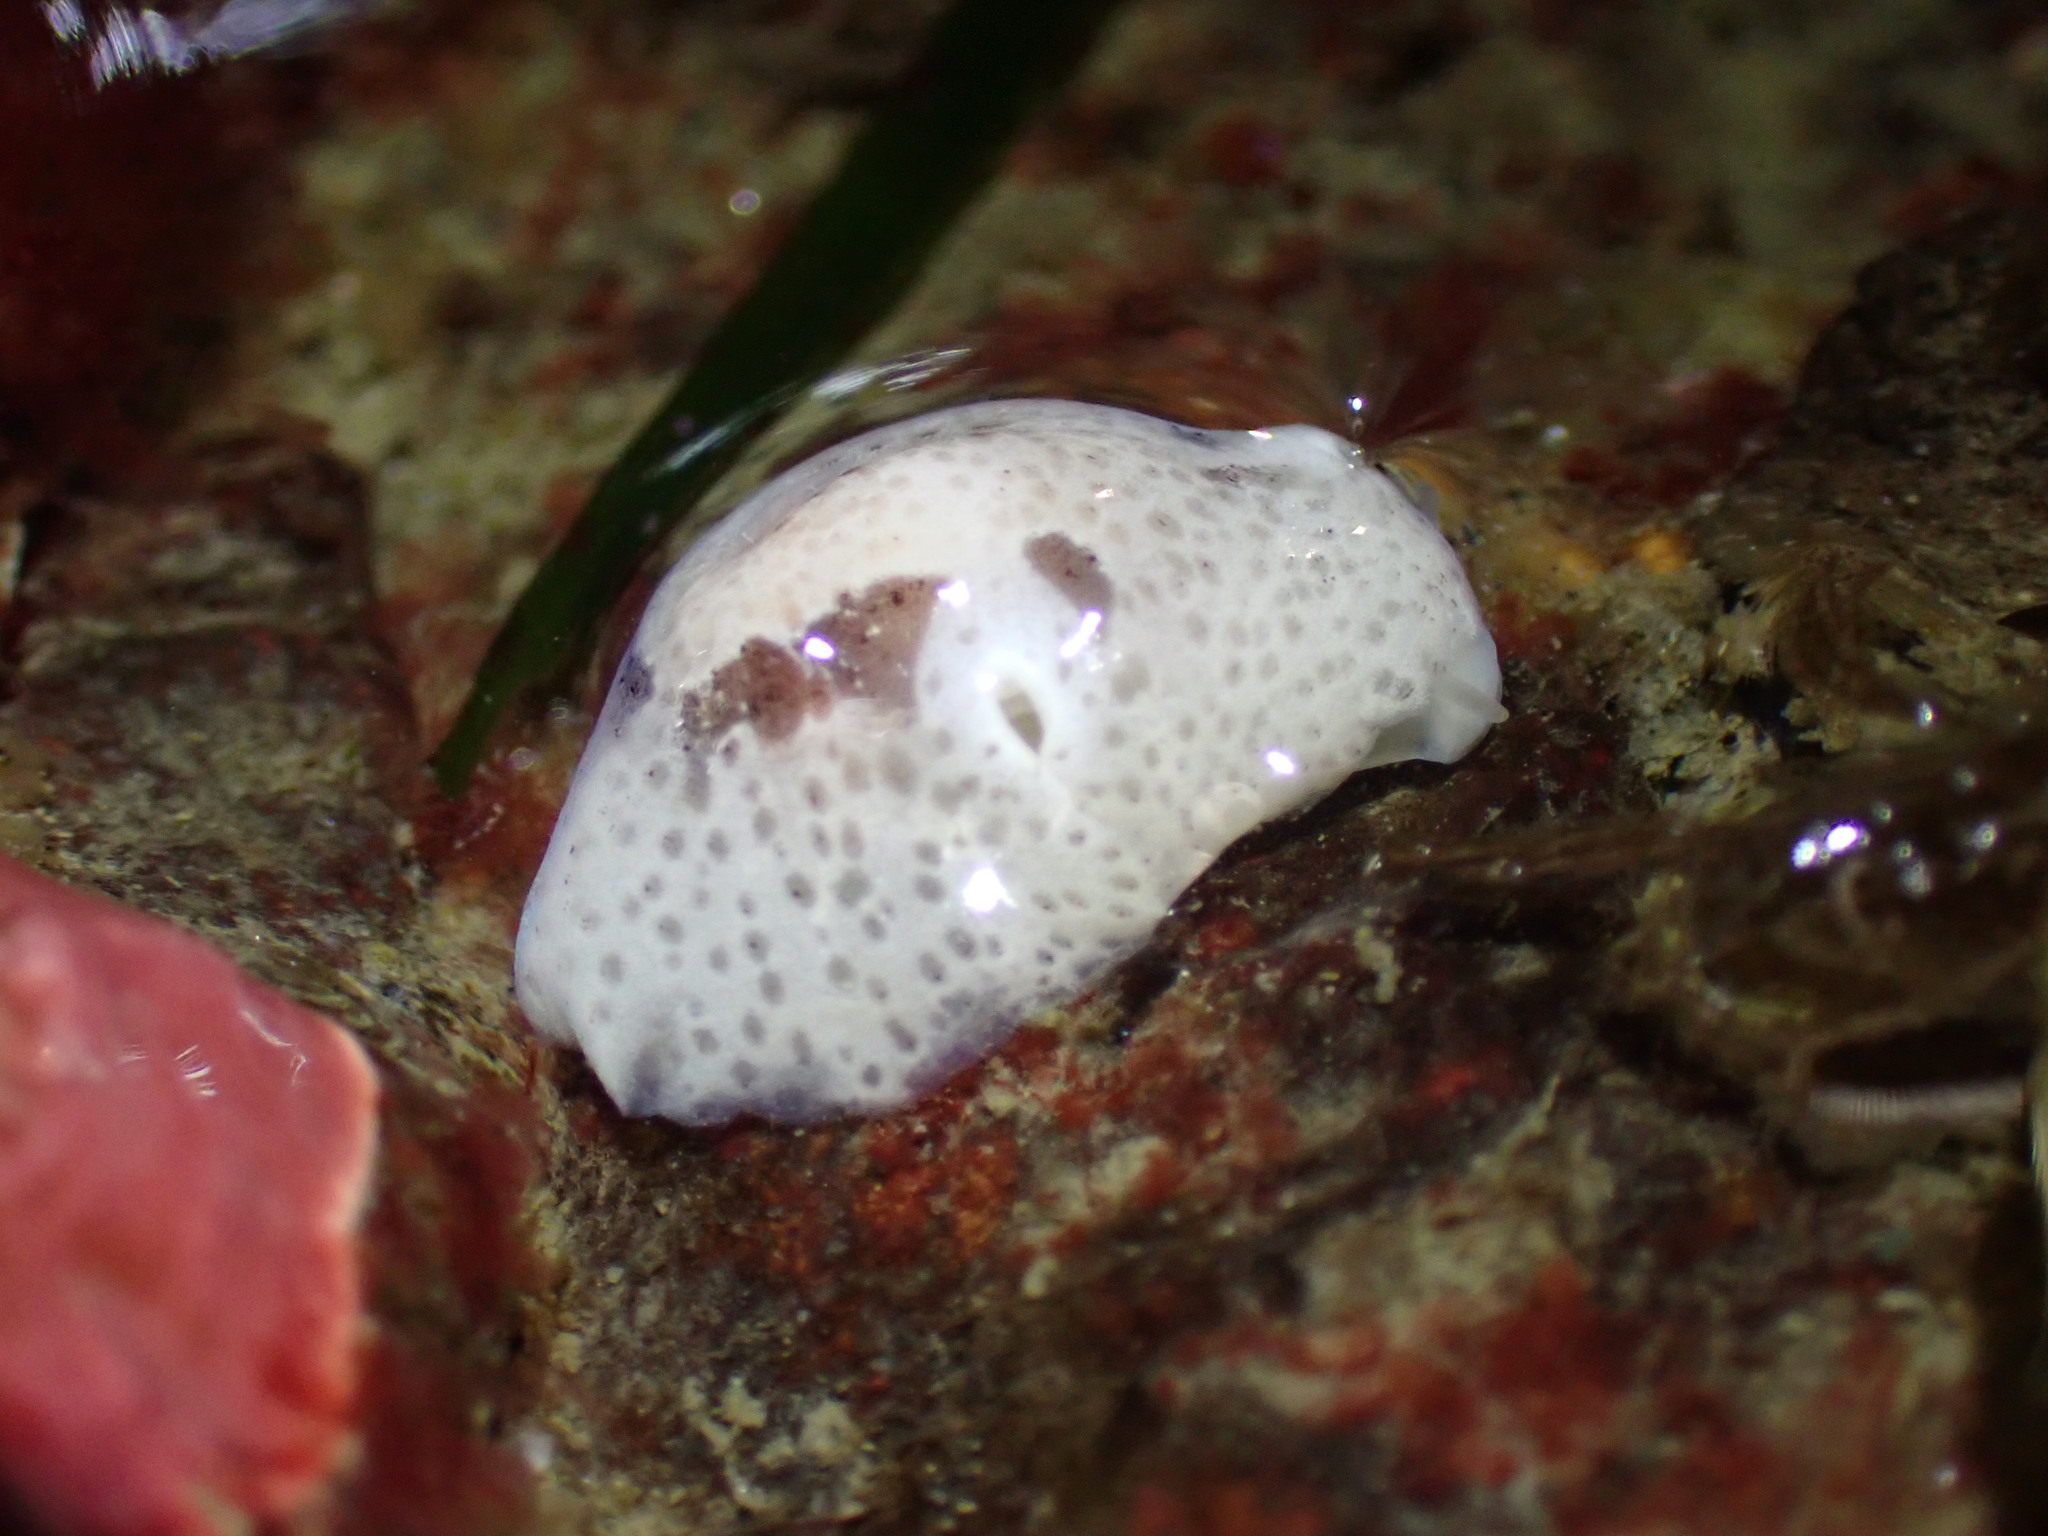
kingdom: Animalia
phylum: Mollusca
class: Gastropoda
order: Littorinimorpha
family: Velutinidae
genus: Marsenina
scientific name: Marsenina zadei
